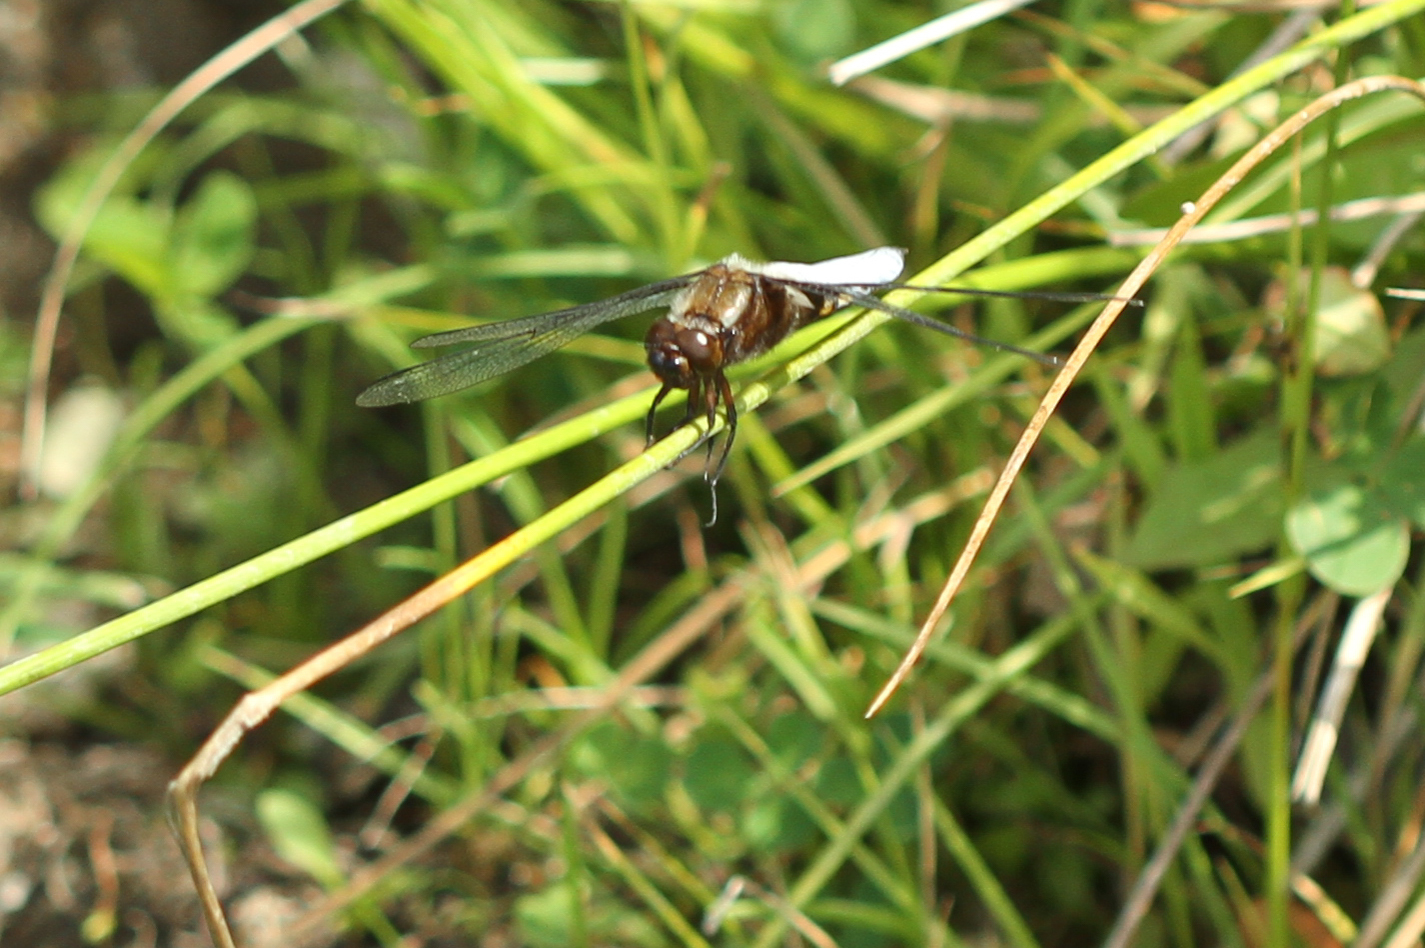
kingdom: Animalia
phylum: Arthropoda
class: Insecta
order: Odonata
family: Libellulidae
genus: Libellula
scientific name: Libellula depressa
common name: Broad-bodied chaser
